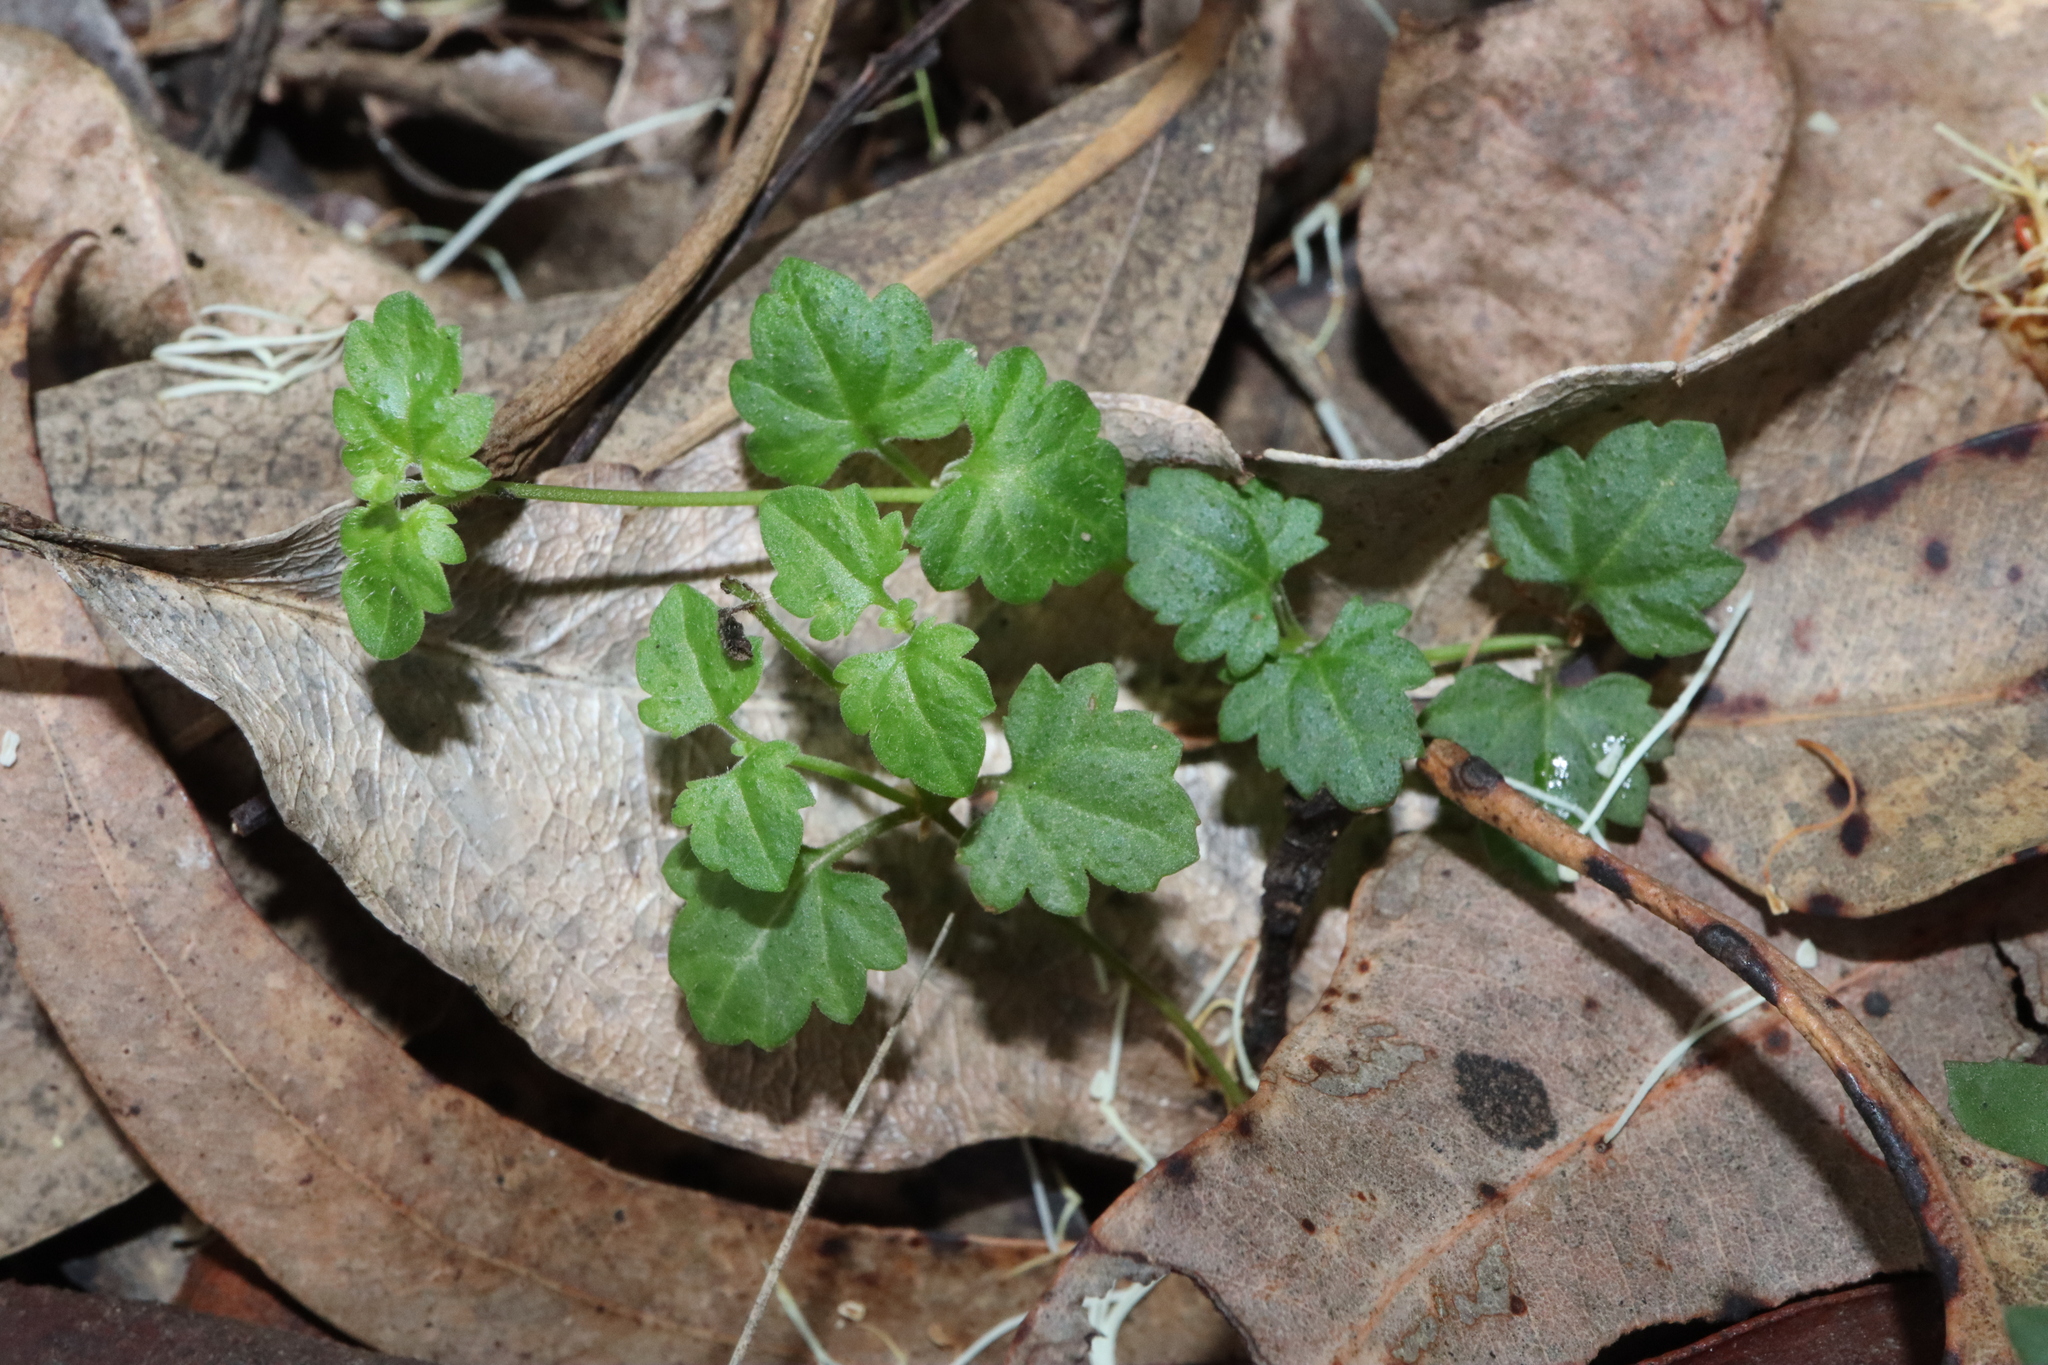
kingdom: Plantae
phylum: Tracheophyta
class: Magnoliopsida
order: Lamiales
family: Plantaginaceae
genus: Veronica
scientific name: Veronica plebeia
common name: Speedwell
